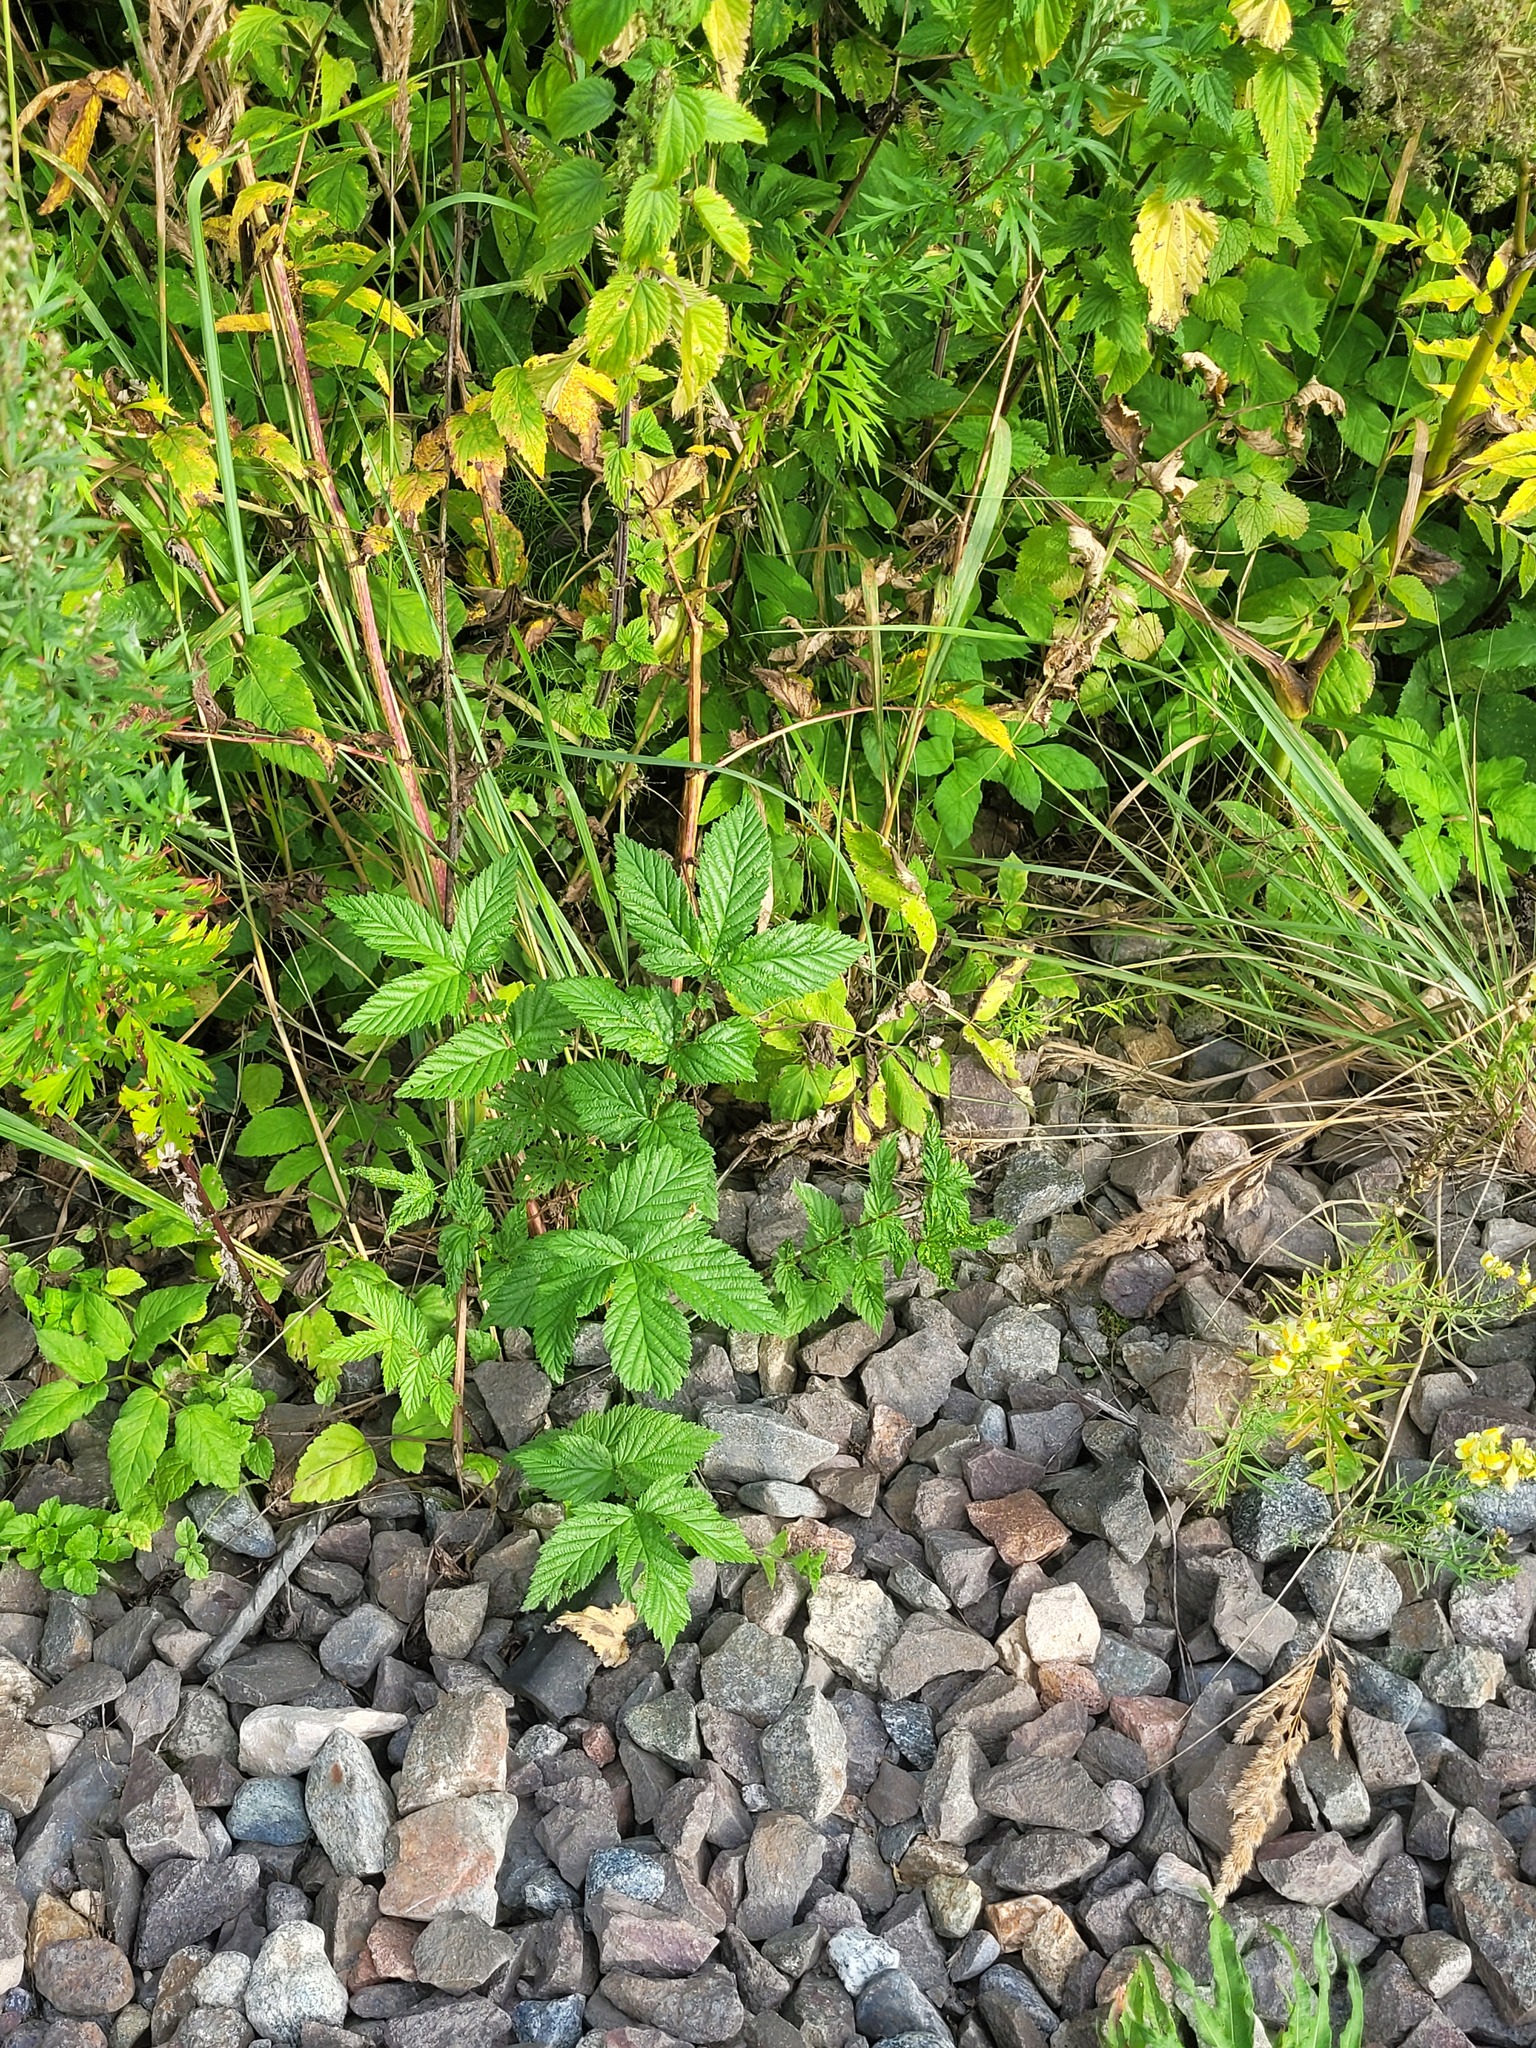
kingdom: Plantae
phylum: Tracheophyta
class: Magnoliopsida
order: Rosales
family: Rosaceae
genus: Filipendula
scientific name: Filipendula ulmaria
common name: Meadowsweet
